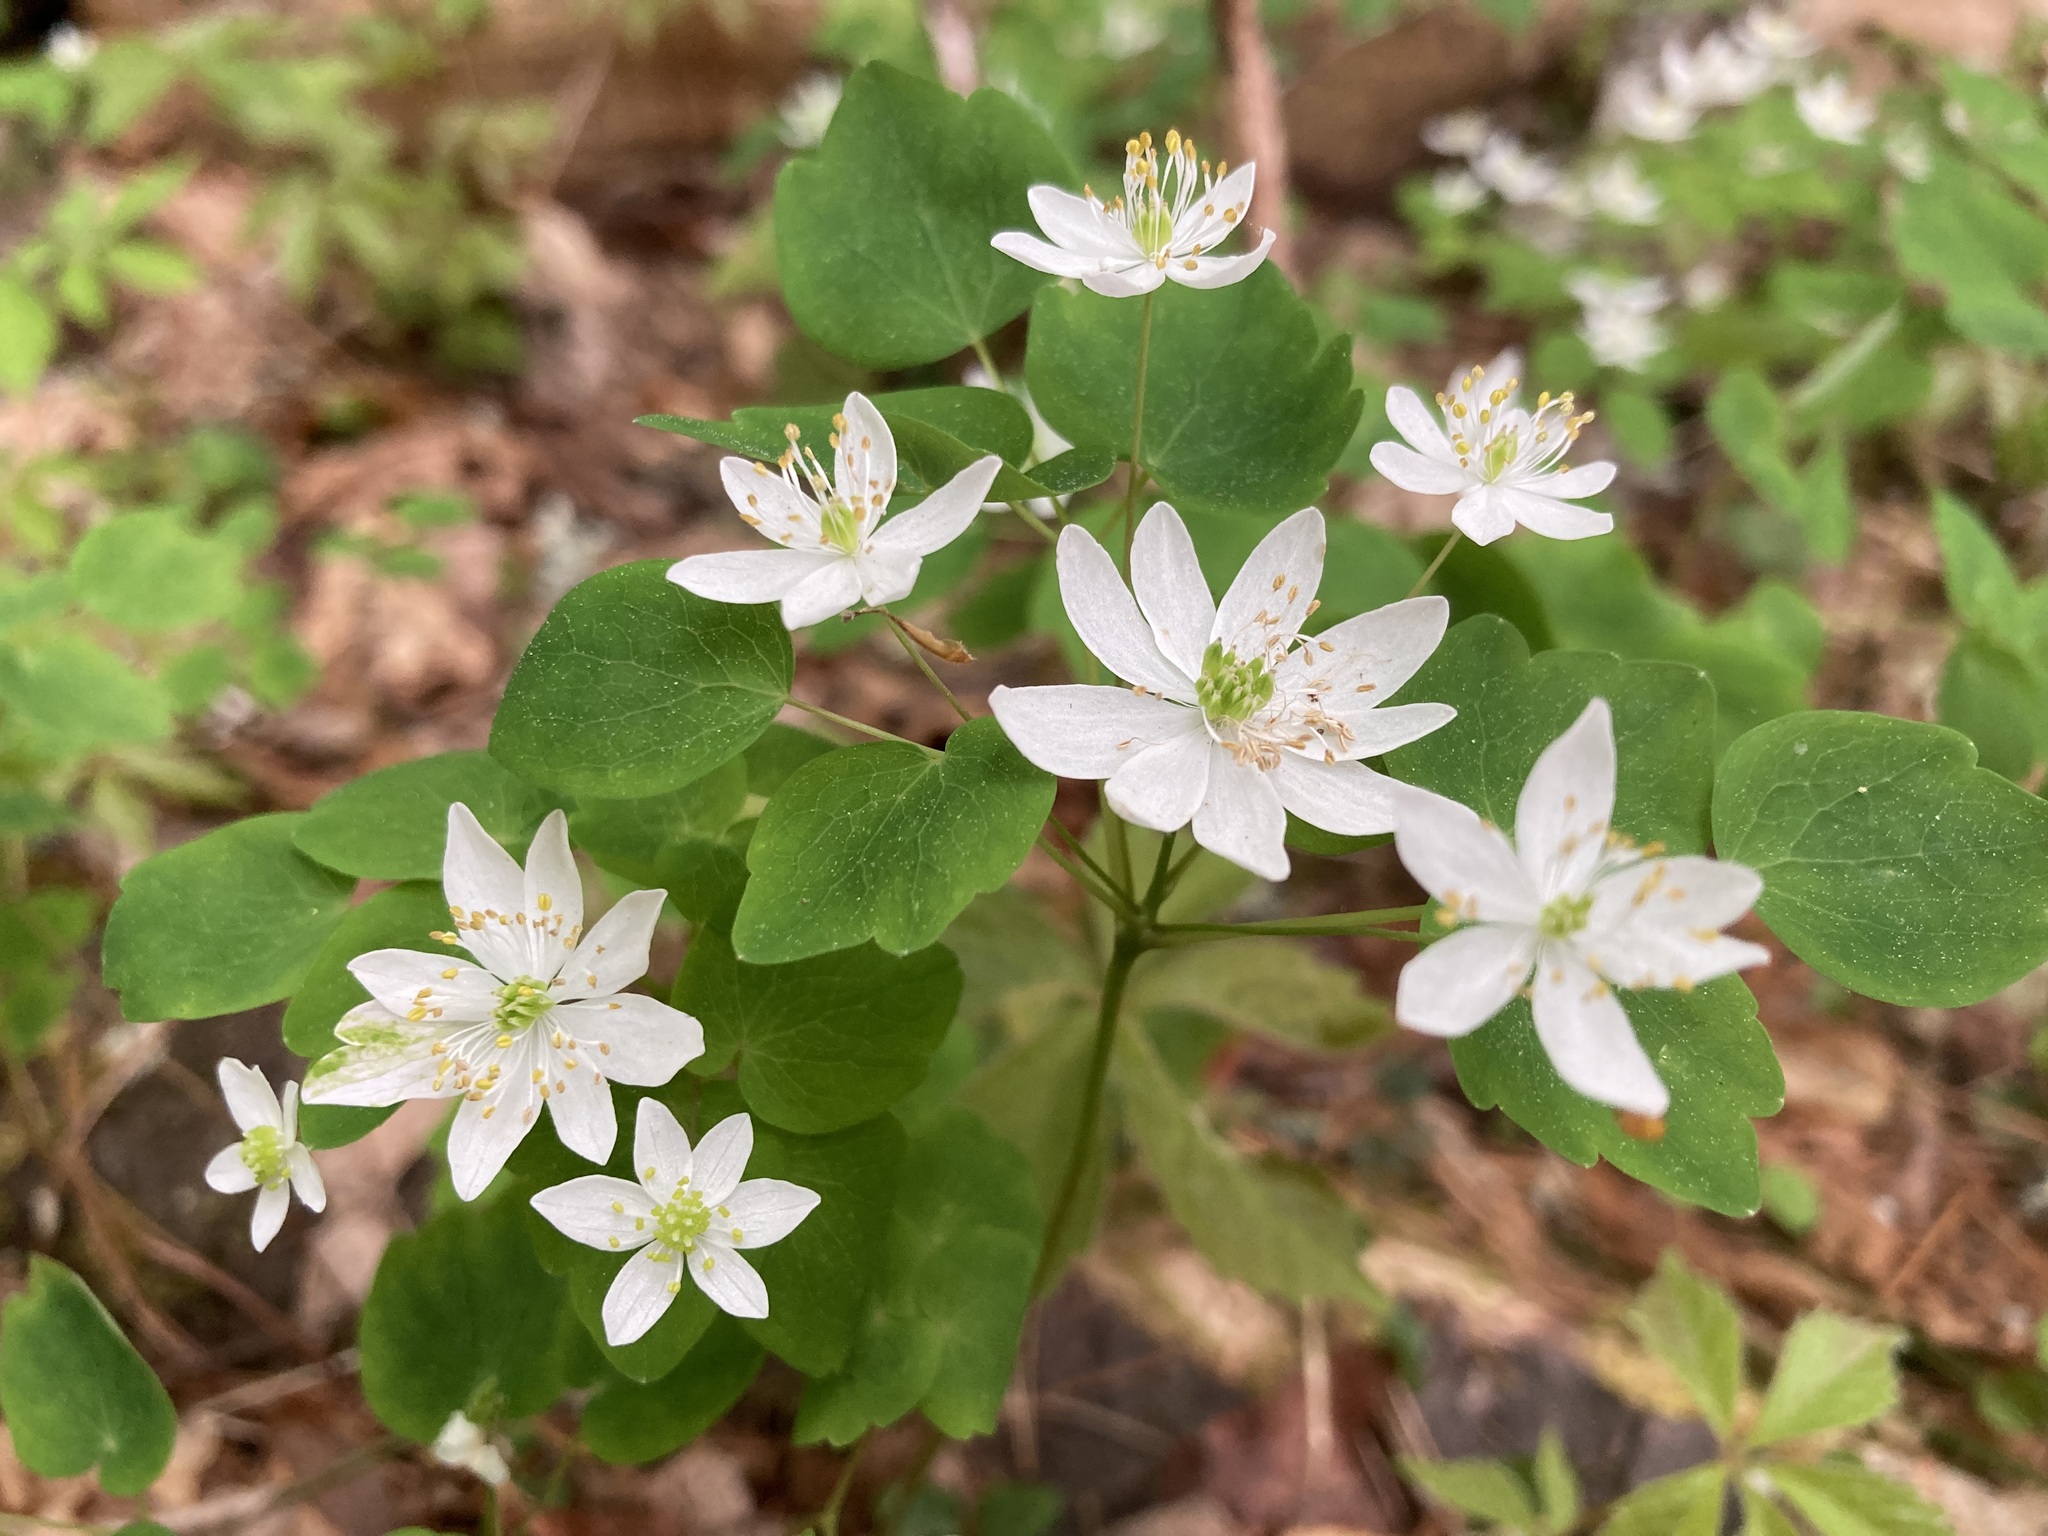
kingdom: Plantae
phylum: Tracheophyta
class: Magnoliopsida
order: Ranunculales
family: Ranunculaceae
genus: Thalictrum
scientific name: Thalictrum thalictroides
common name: Rue-anemone
